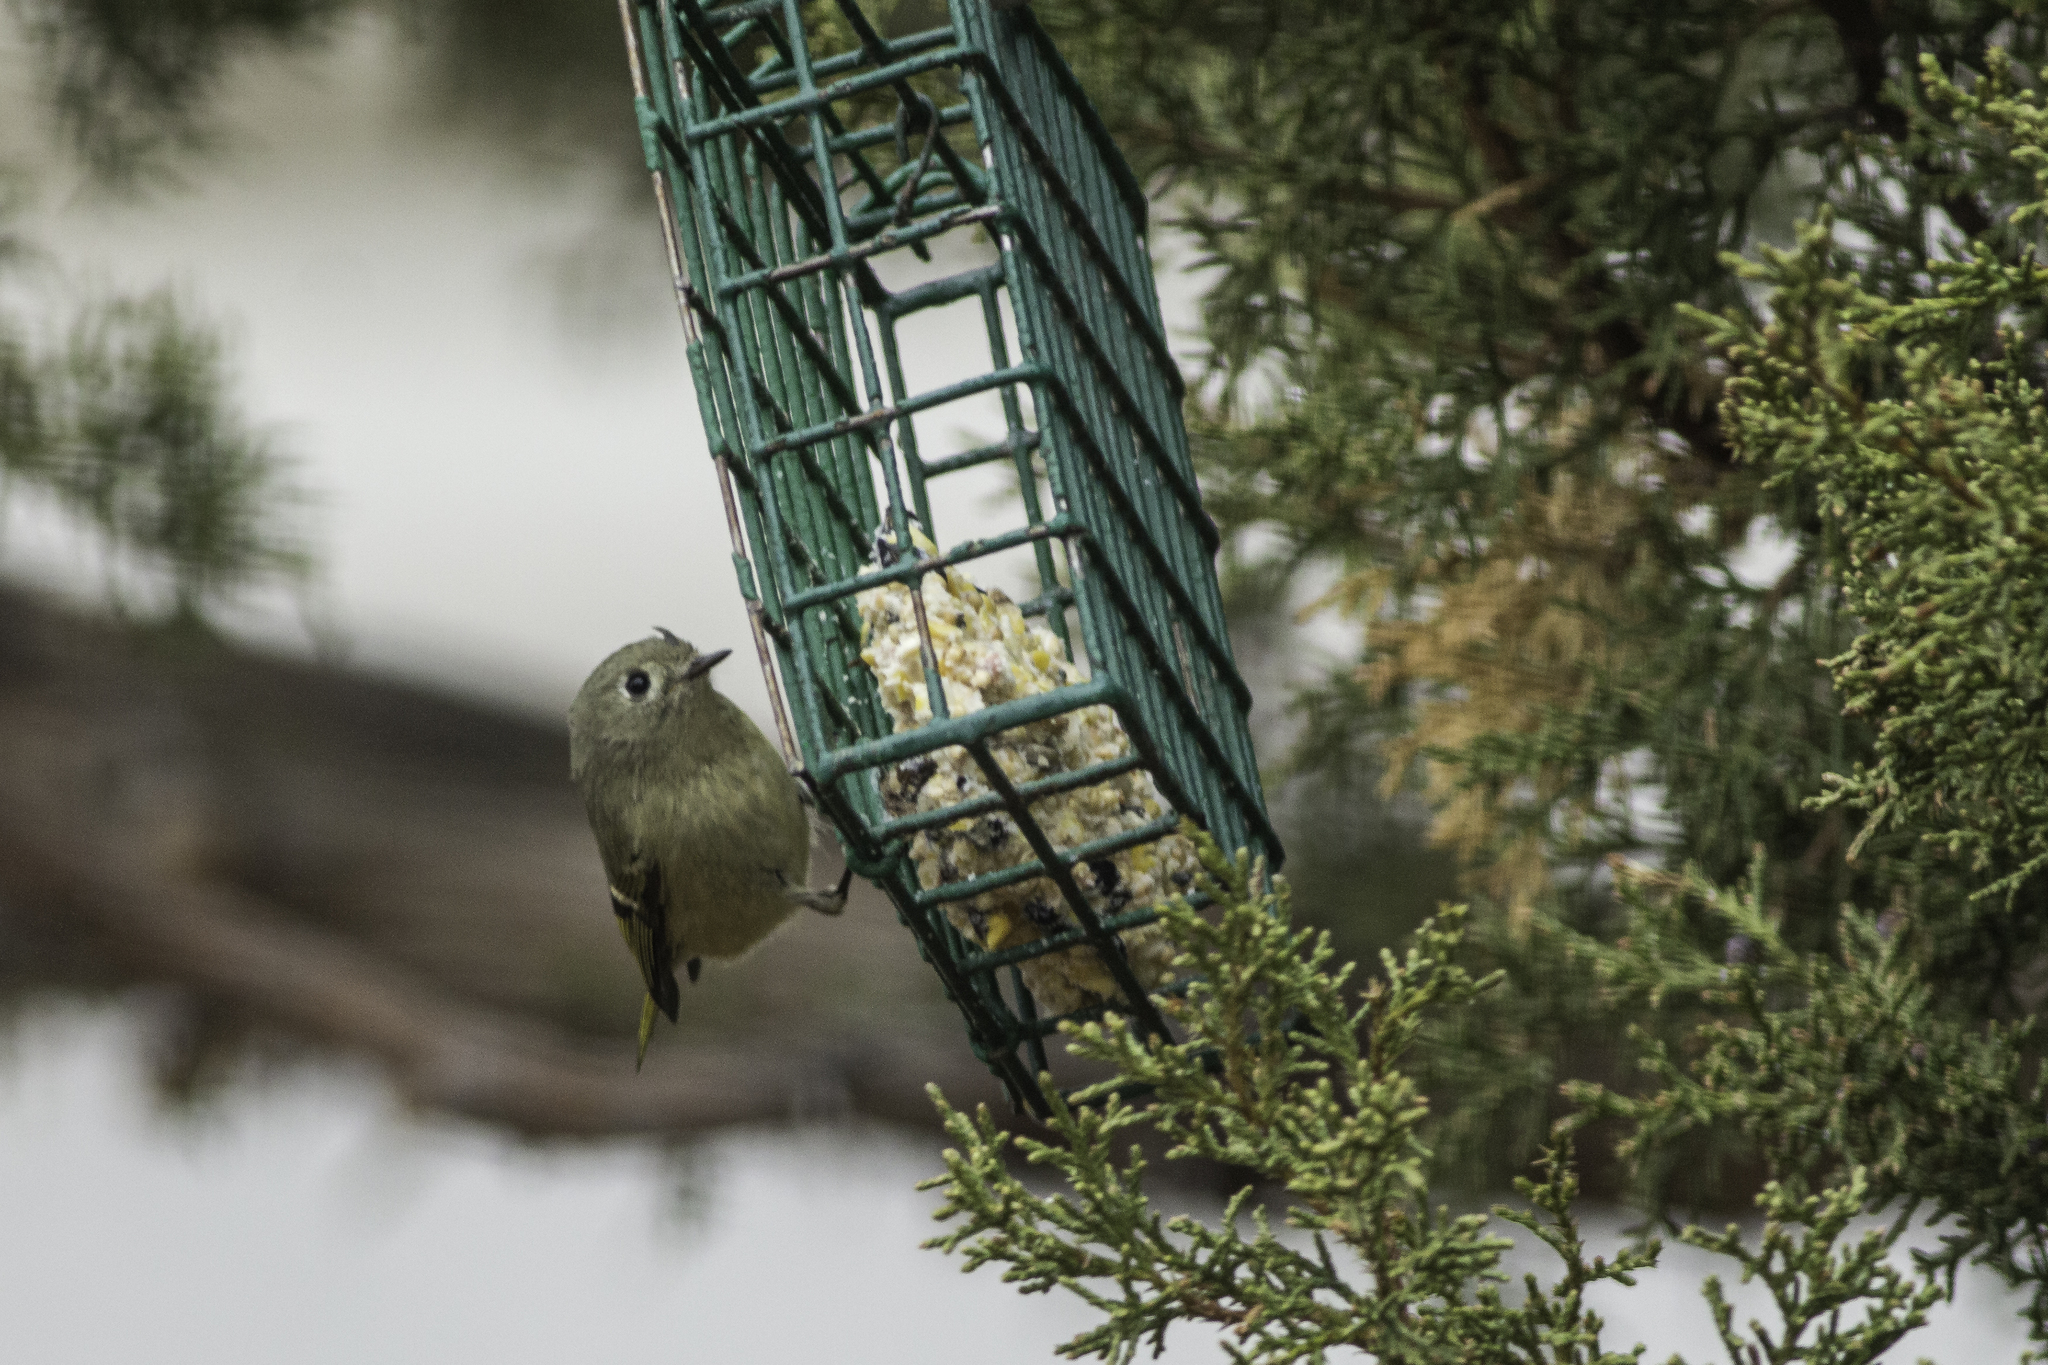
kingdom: Animalia
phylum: Chordata
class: Aves
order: Passeriformes
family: Regulidae
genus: Regulus
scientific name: Regulus calendula
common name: Ruby-crowned kinglet
